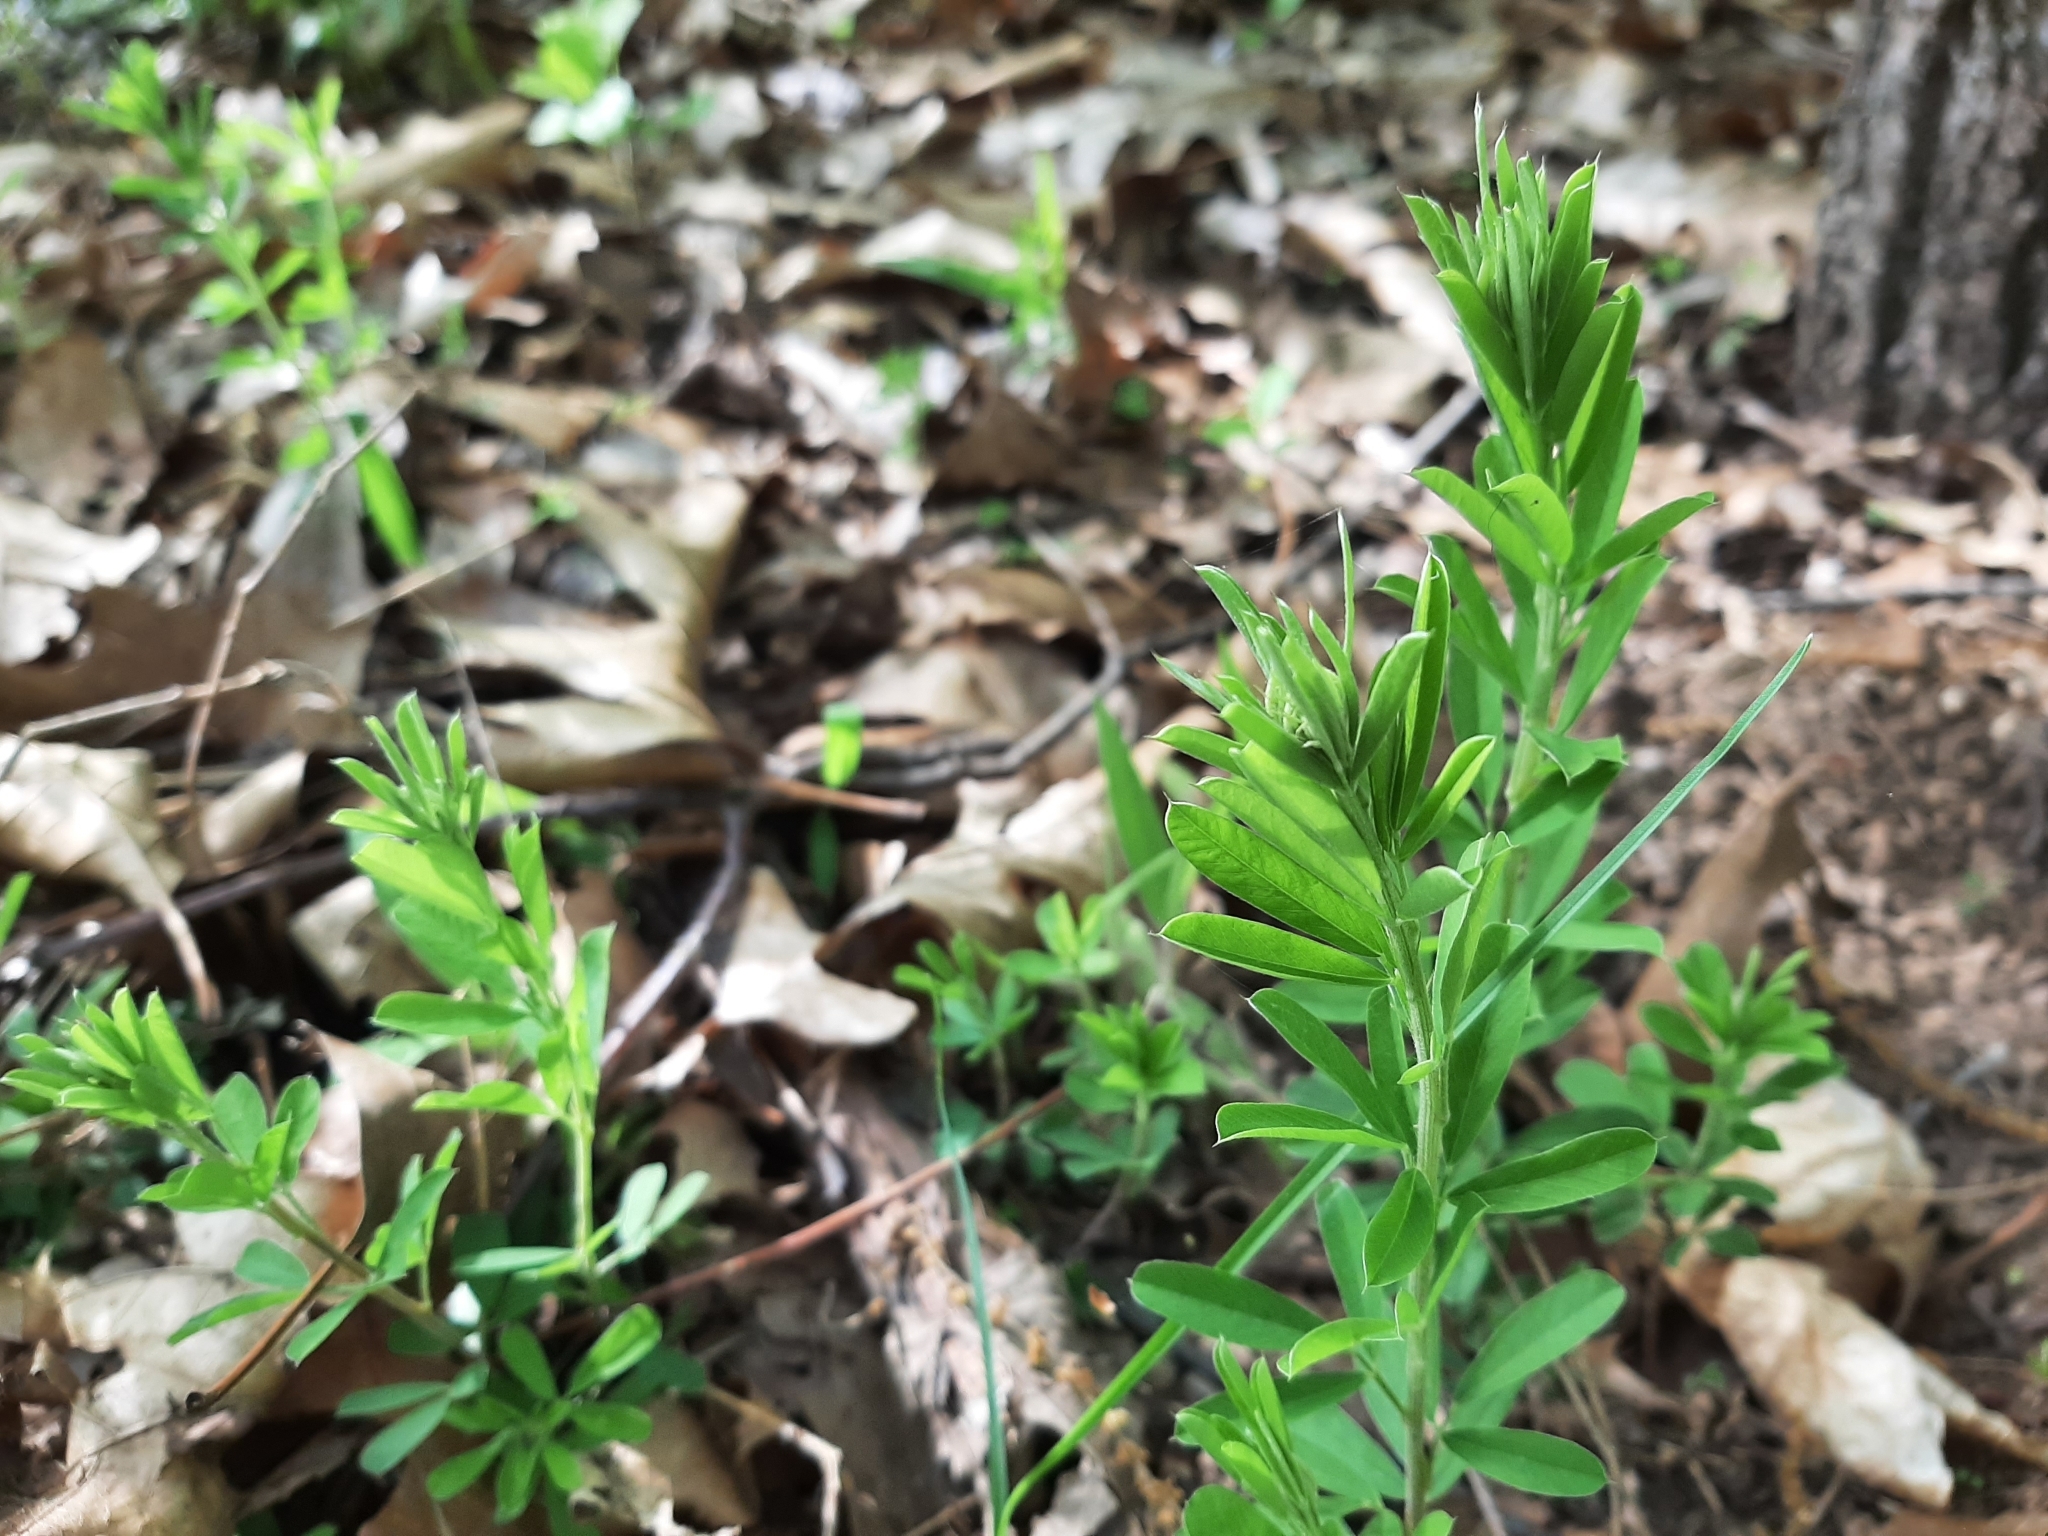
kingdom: Plantae
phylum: Tracheophyta
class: Magnoliopsida
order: Fabales
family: Fabaceae
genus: Lespedeza
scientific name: Lespedeza cuneata
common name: Chinese bush-clover
